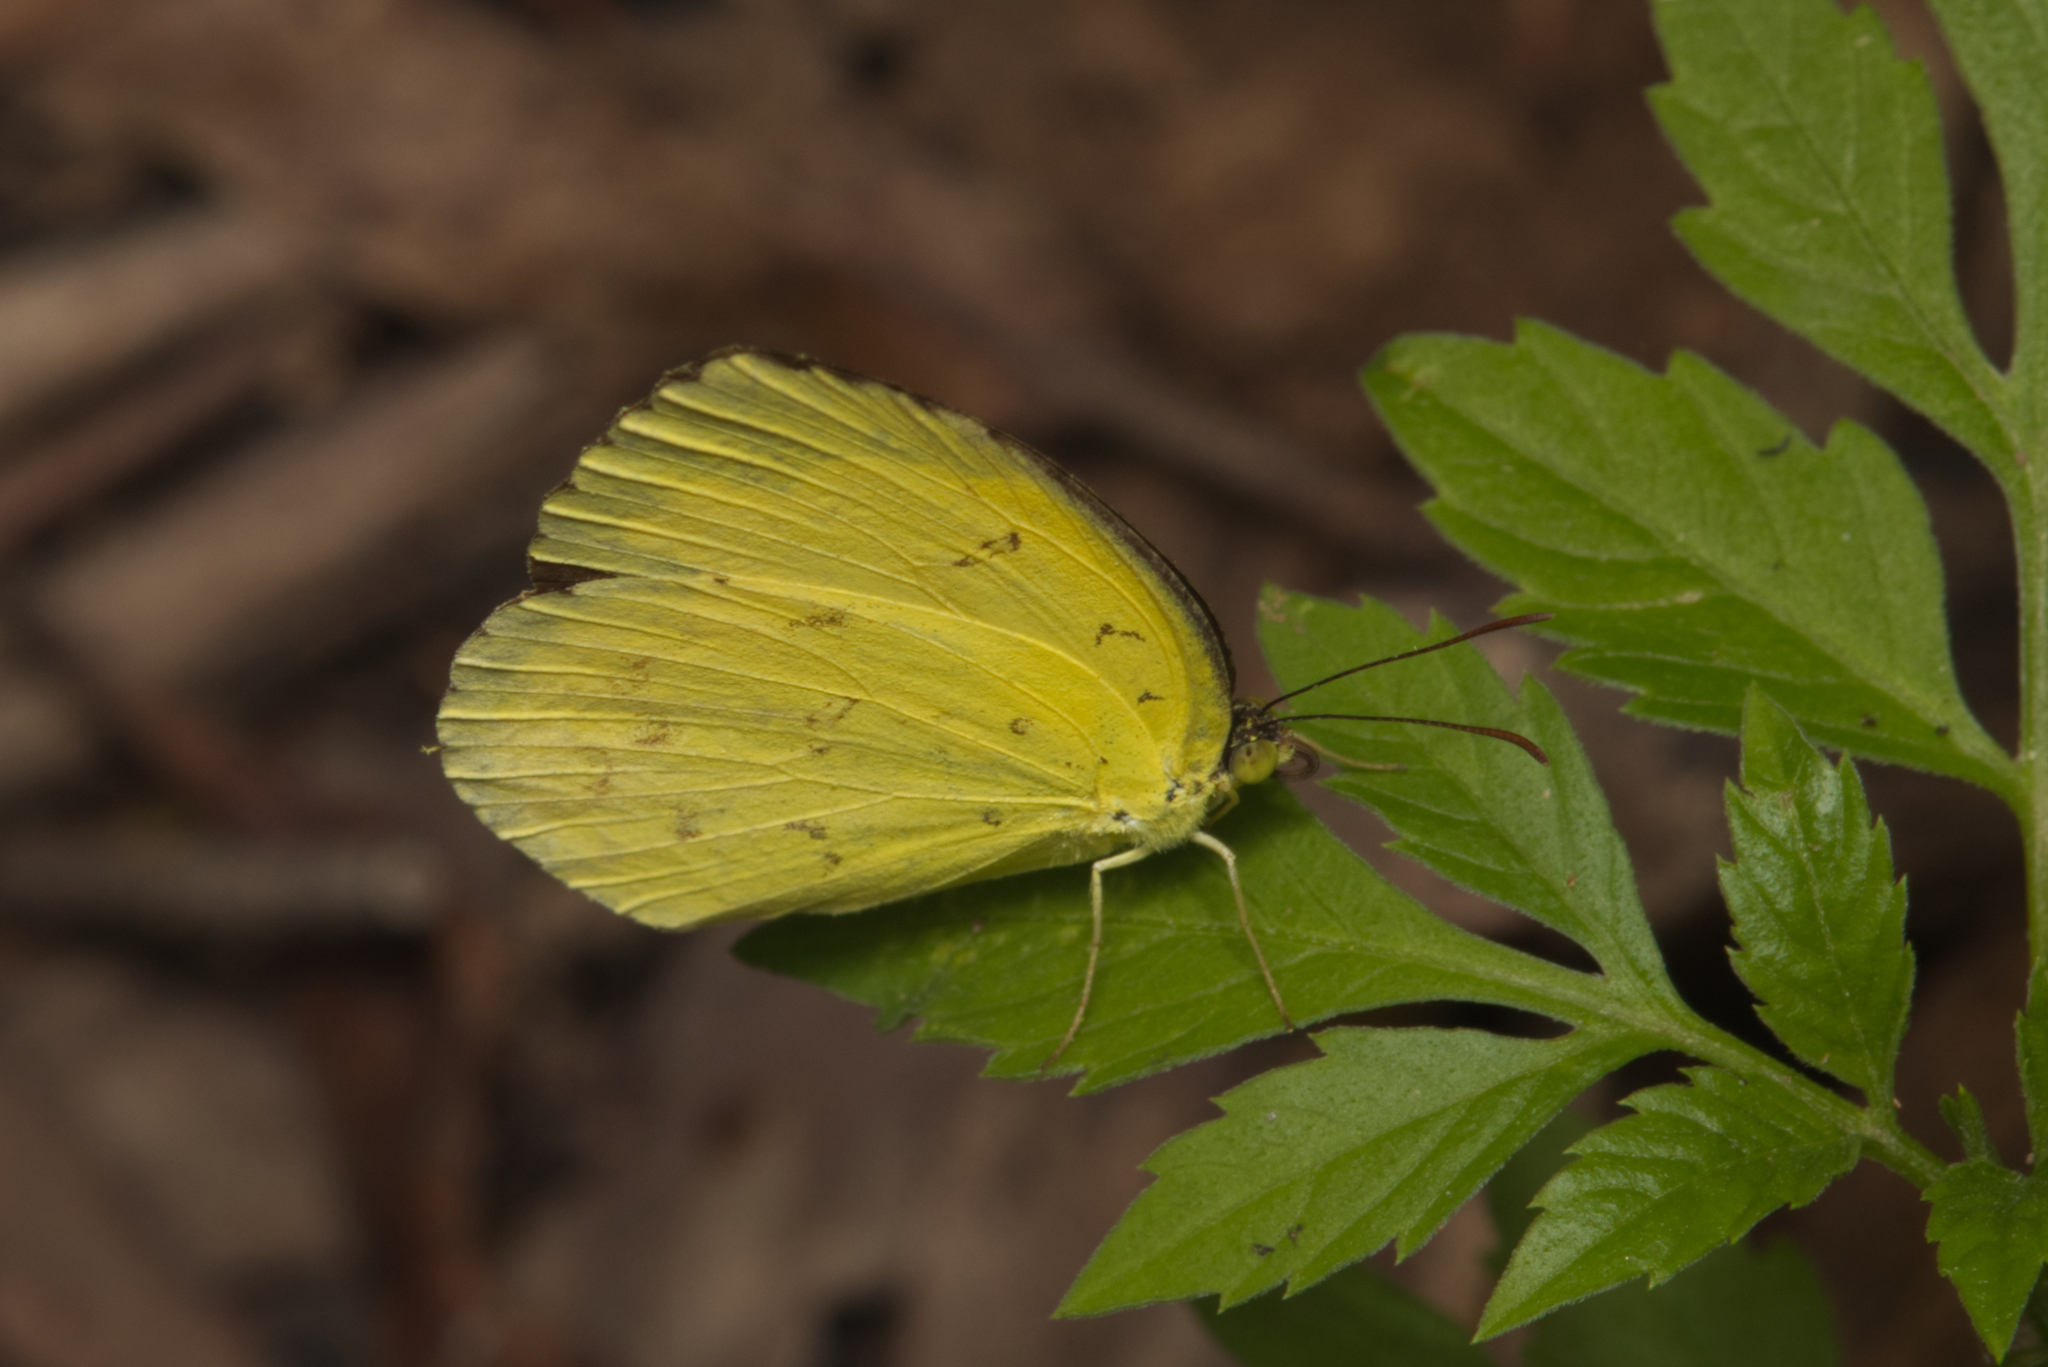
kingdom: Animalia
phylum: Arthropoda
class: Insecta
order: Lepidoptera
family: Pieridae
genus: Eurema
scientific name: Eurema hecabe
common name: Pale grass yellow
